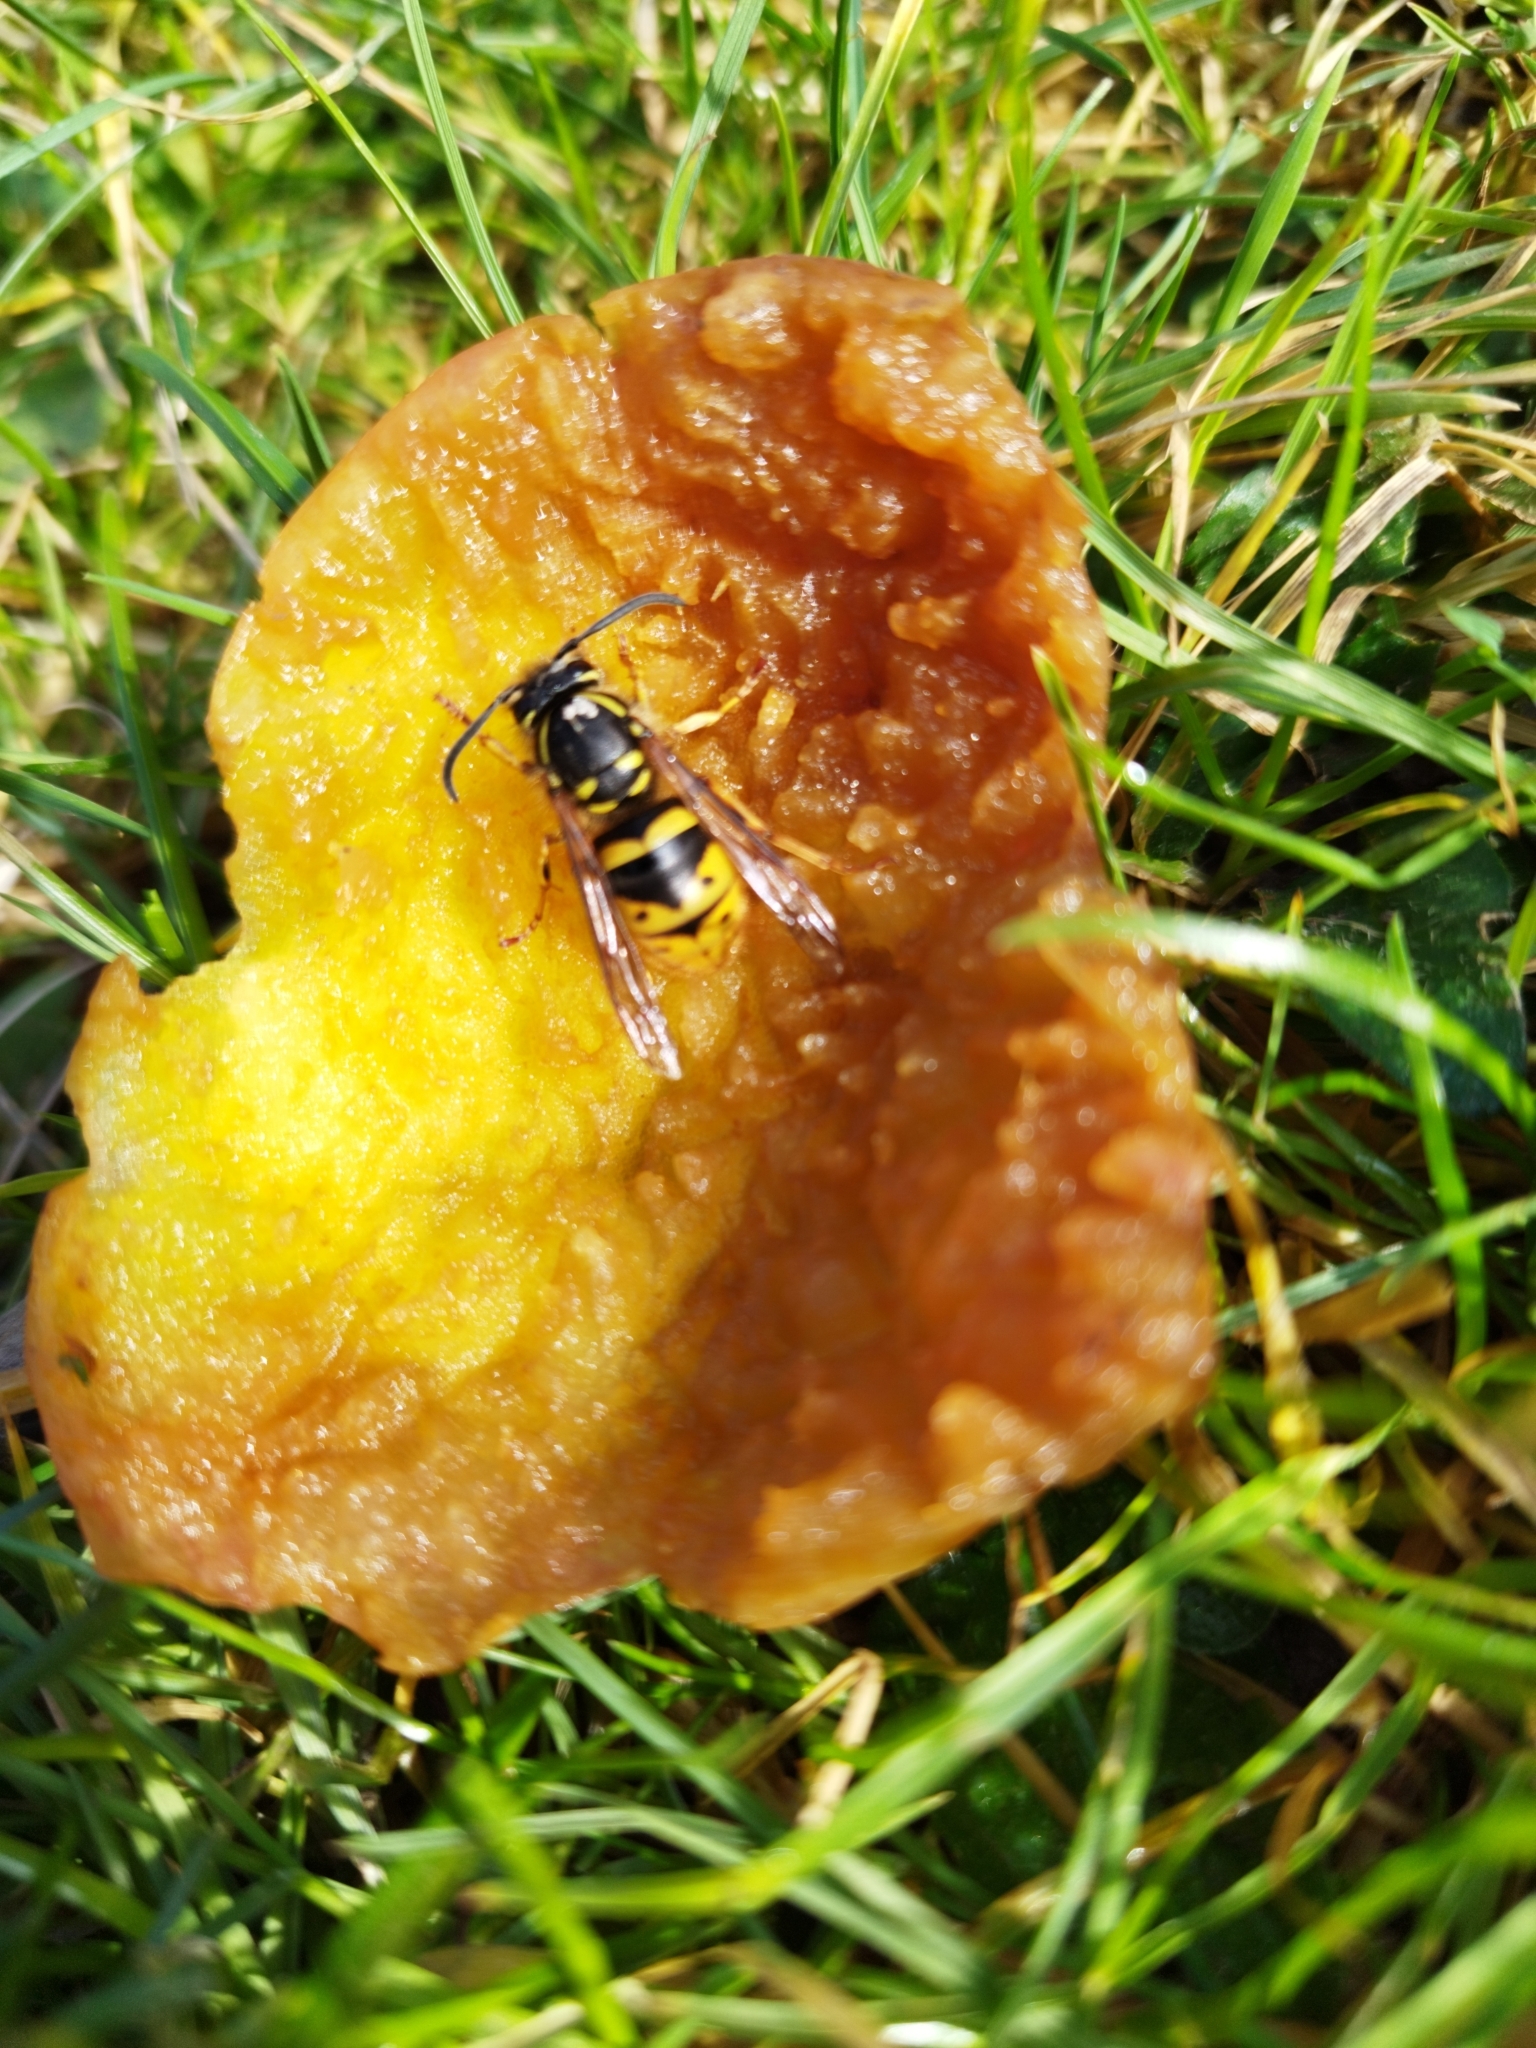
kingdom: Animalia
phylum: Arthropoda
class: Insecta
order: Hymenoptera
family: Vespidae
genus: Vespula
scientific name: Vespula vulgaris
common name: Common wasp
